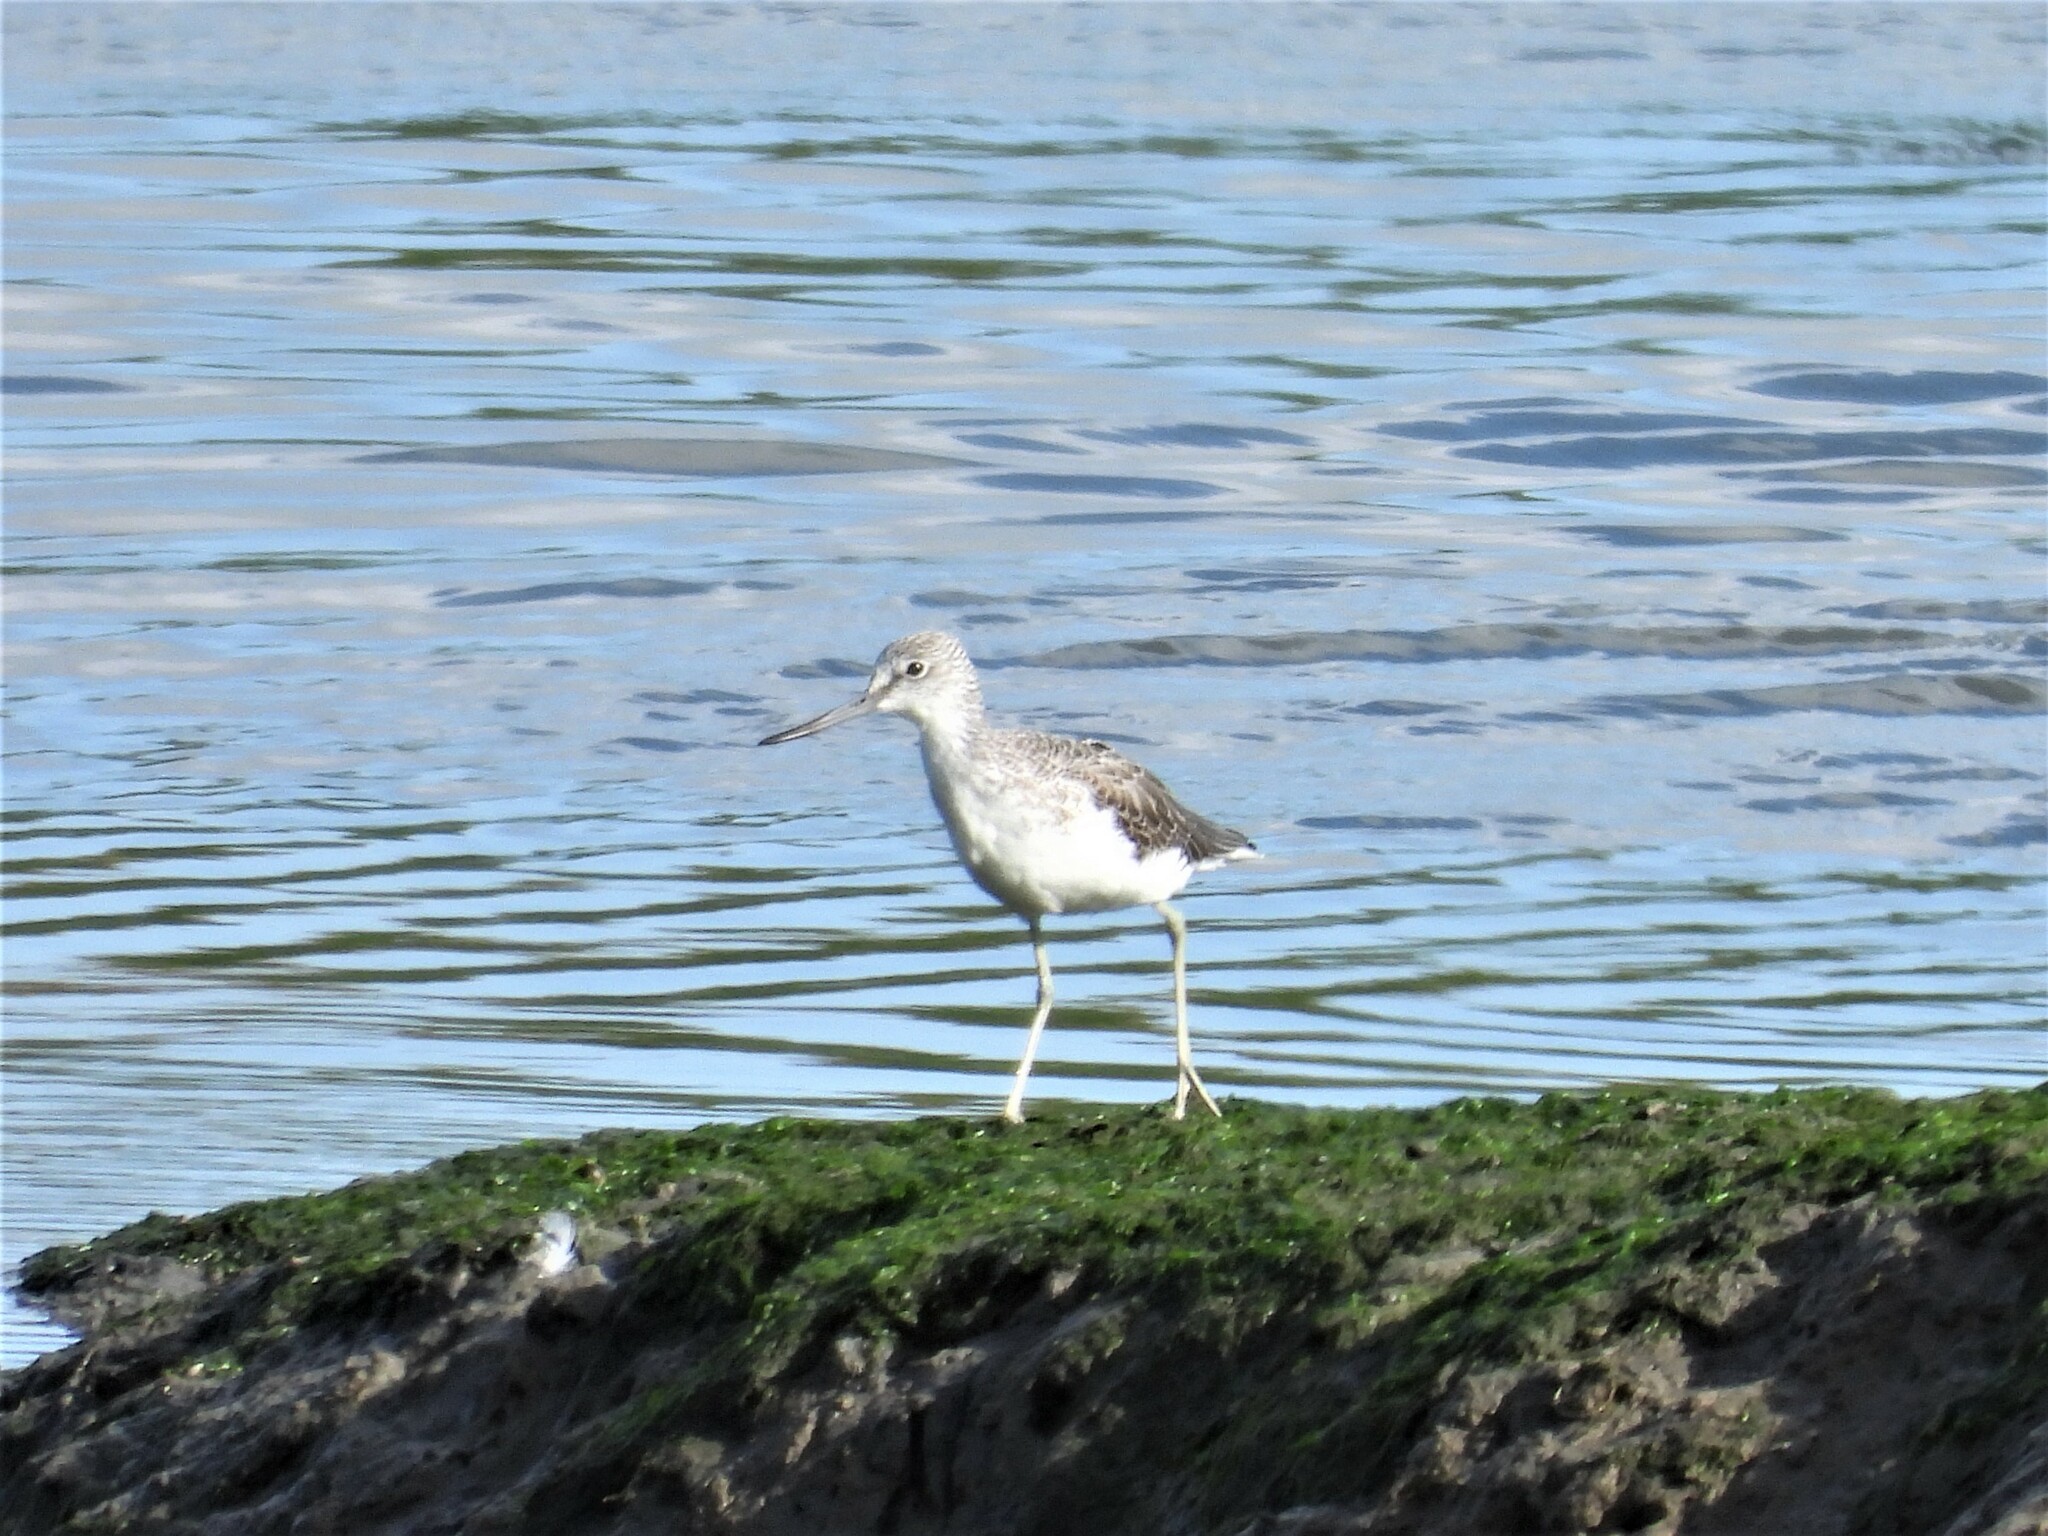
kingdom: Animalia
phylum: Chordata
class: Aves
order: Charadriiformes
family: Scolopacidae
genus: Tringa
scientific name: Tringa nebularia
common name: Common greenshank
